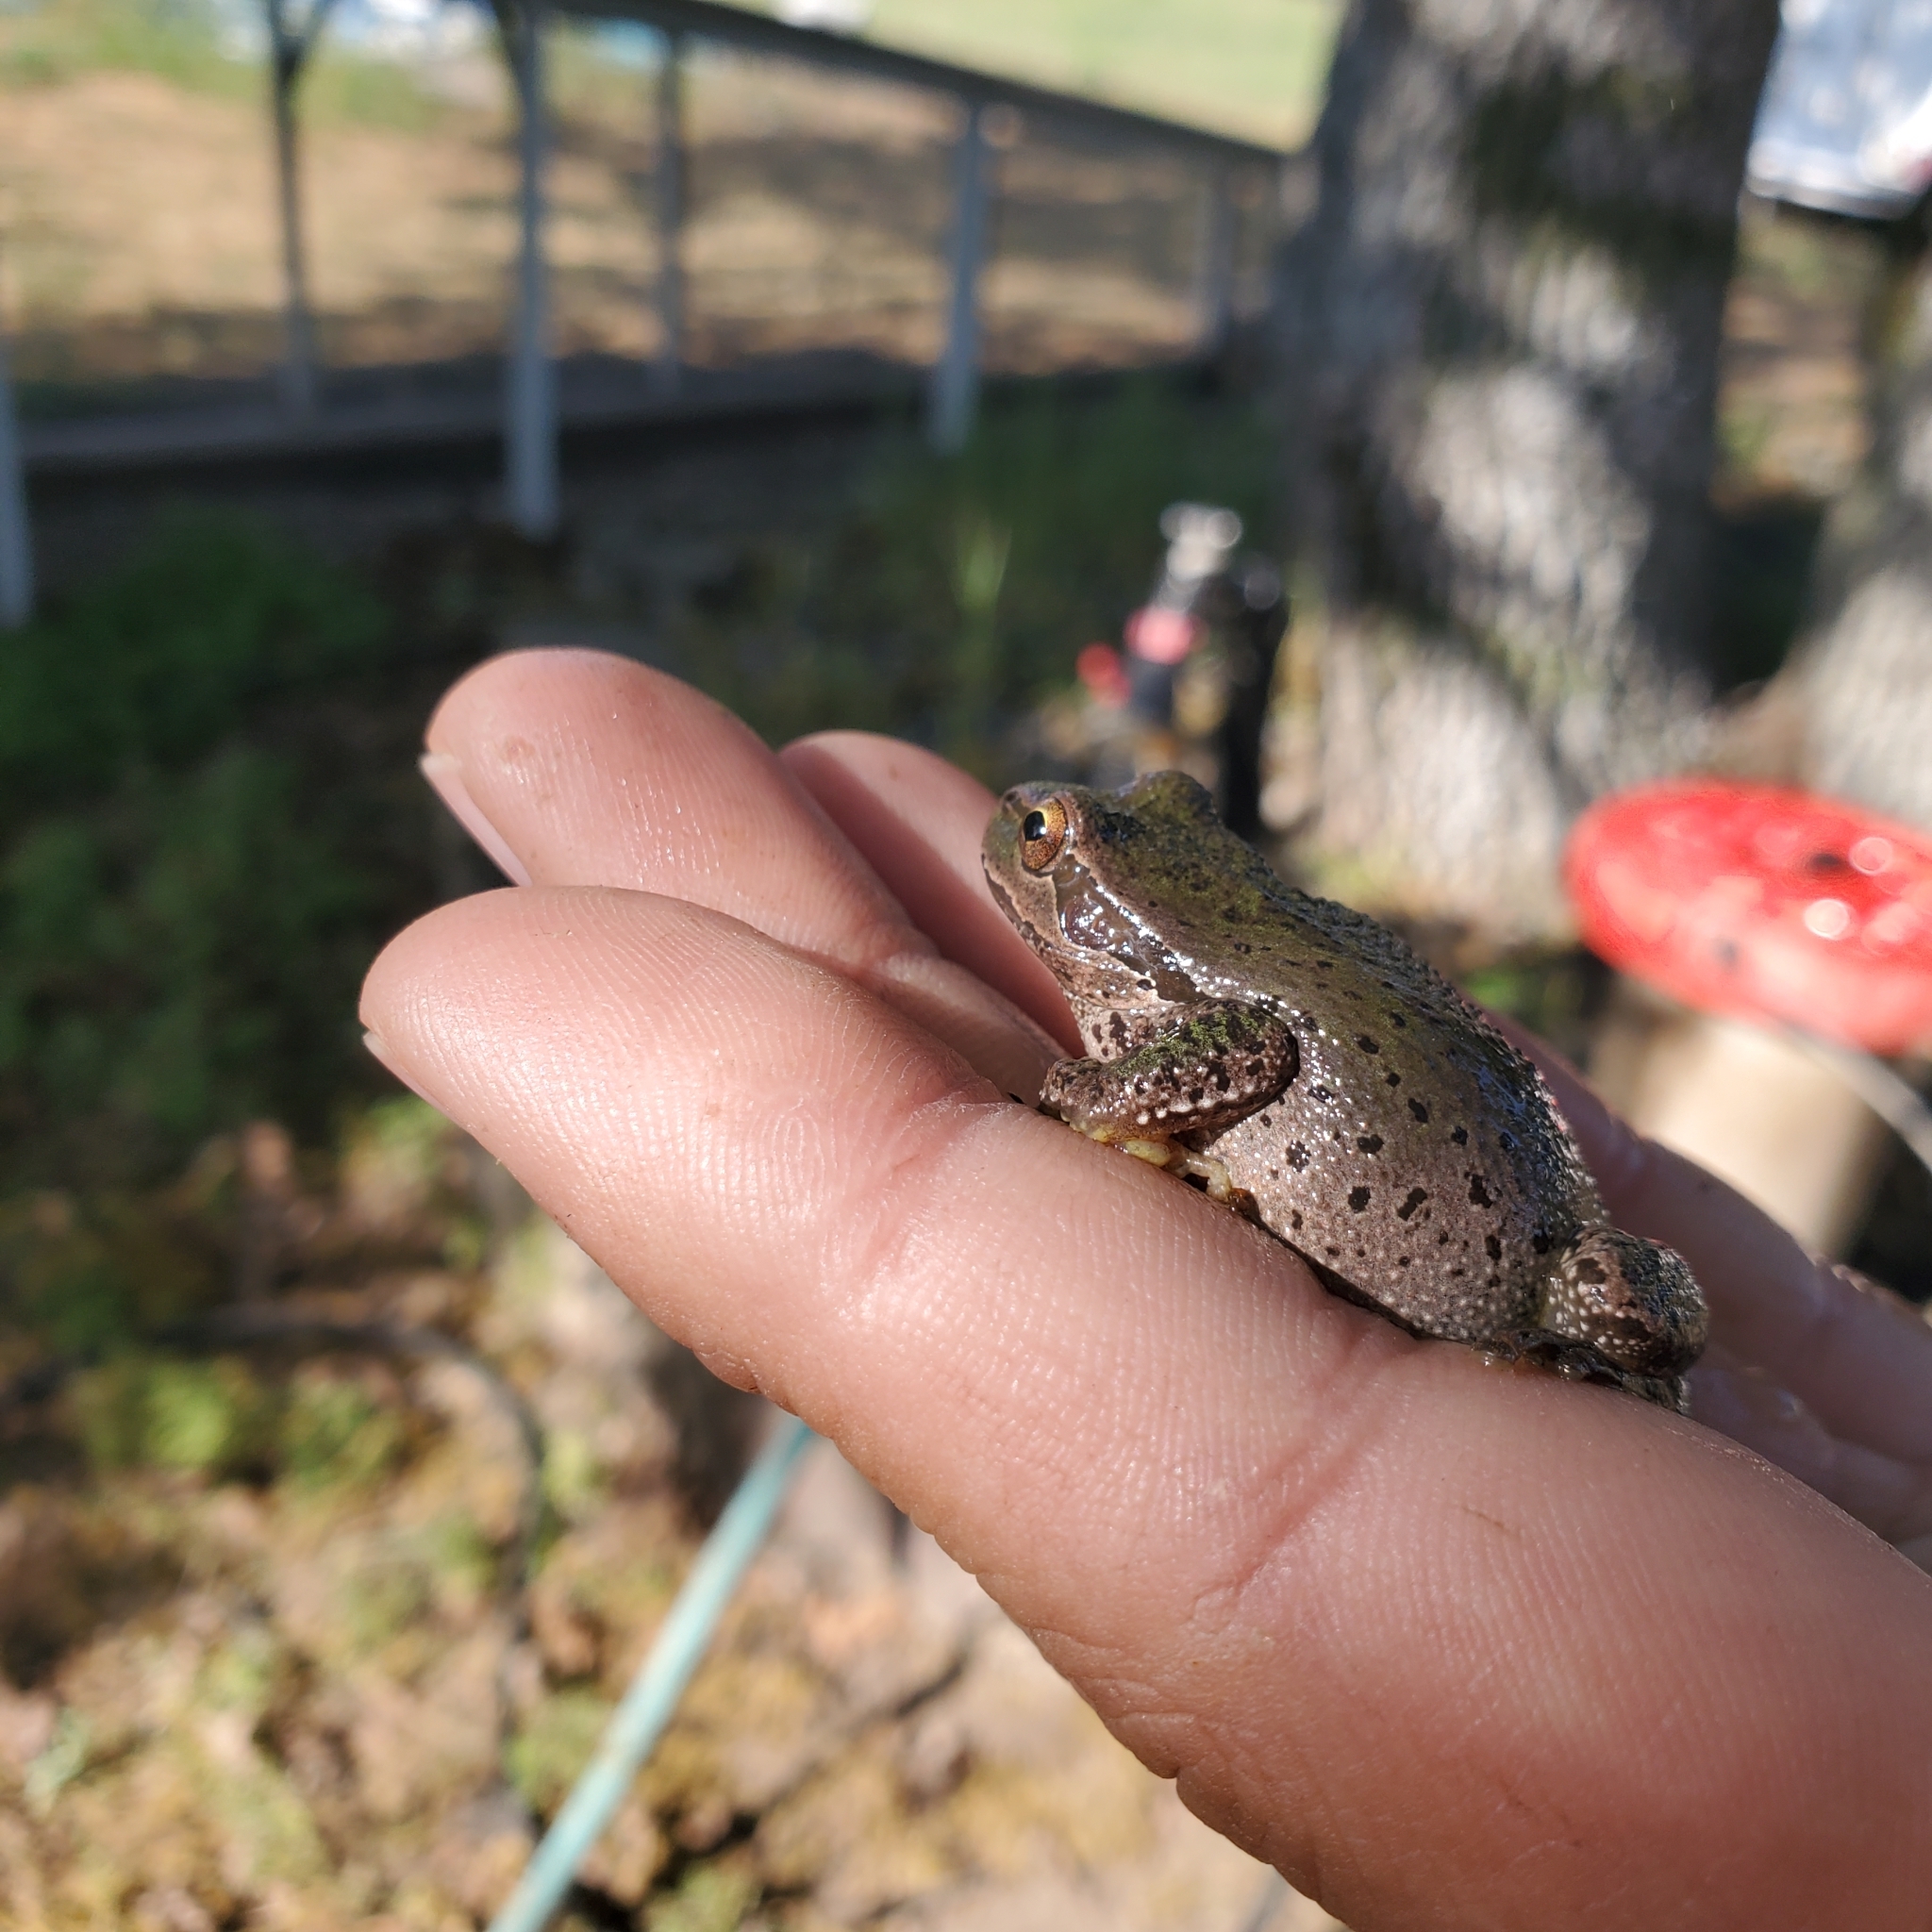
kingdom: Animalia
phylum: Chordata
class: Amphibia
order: Anura
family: Hylidae
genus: Pseudacris
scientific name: Pseudacris regilla
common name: Pacific chorus frog
